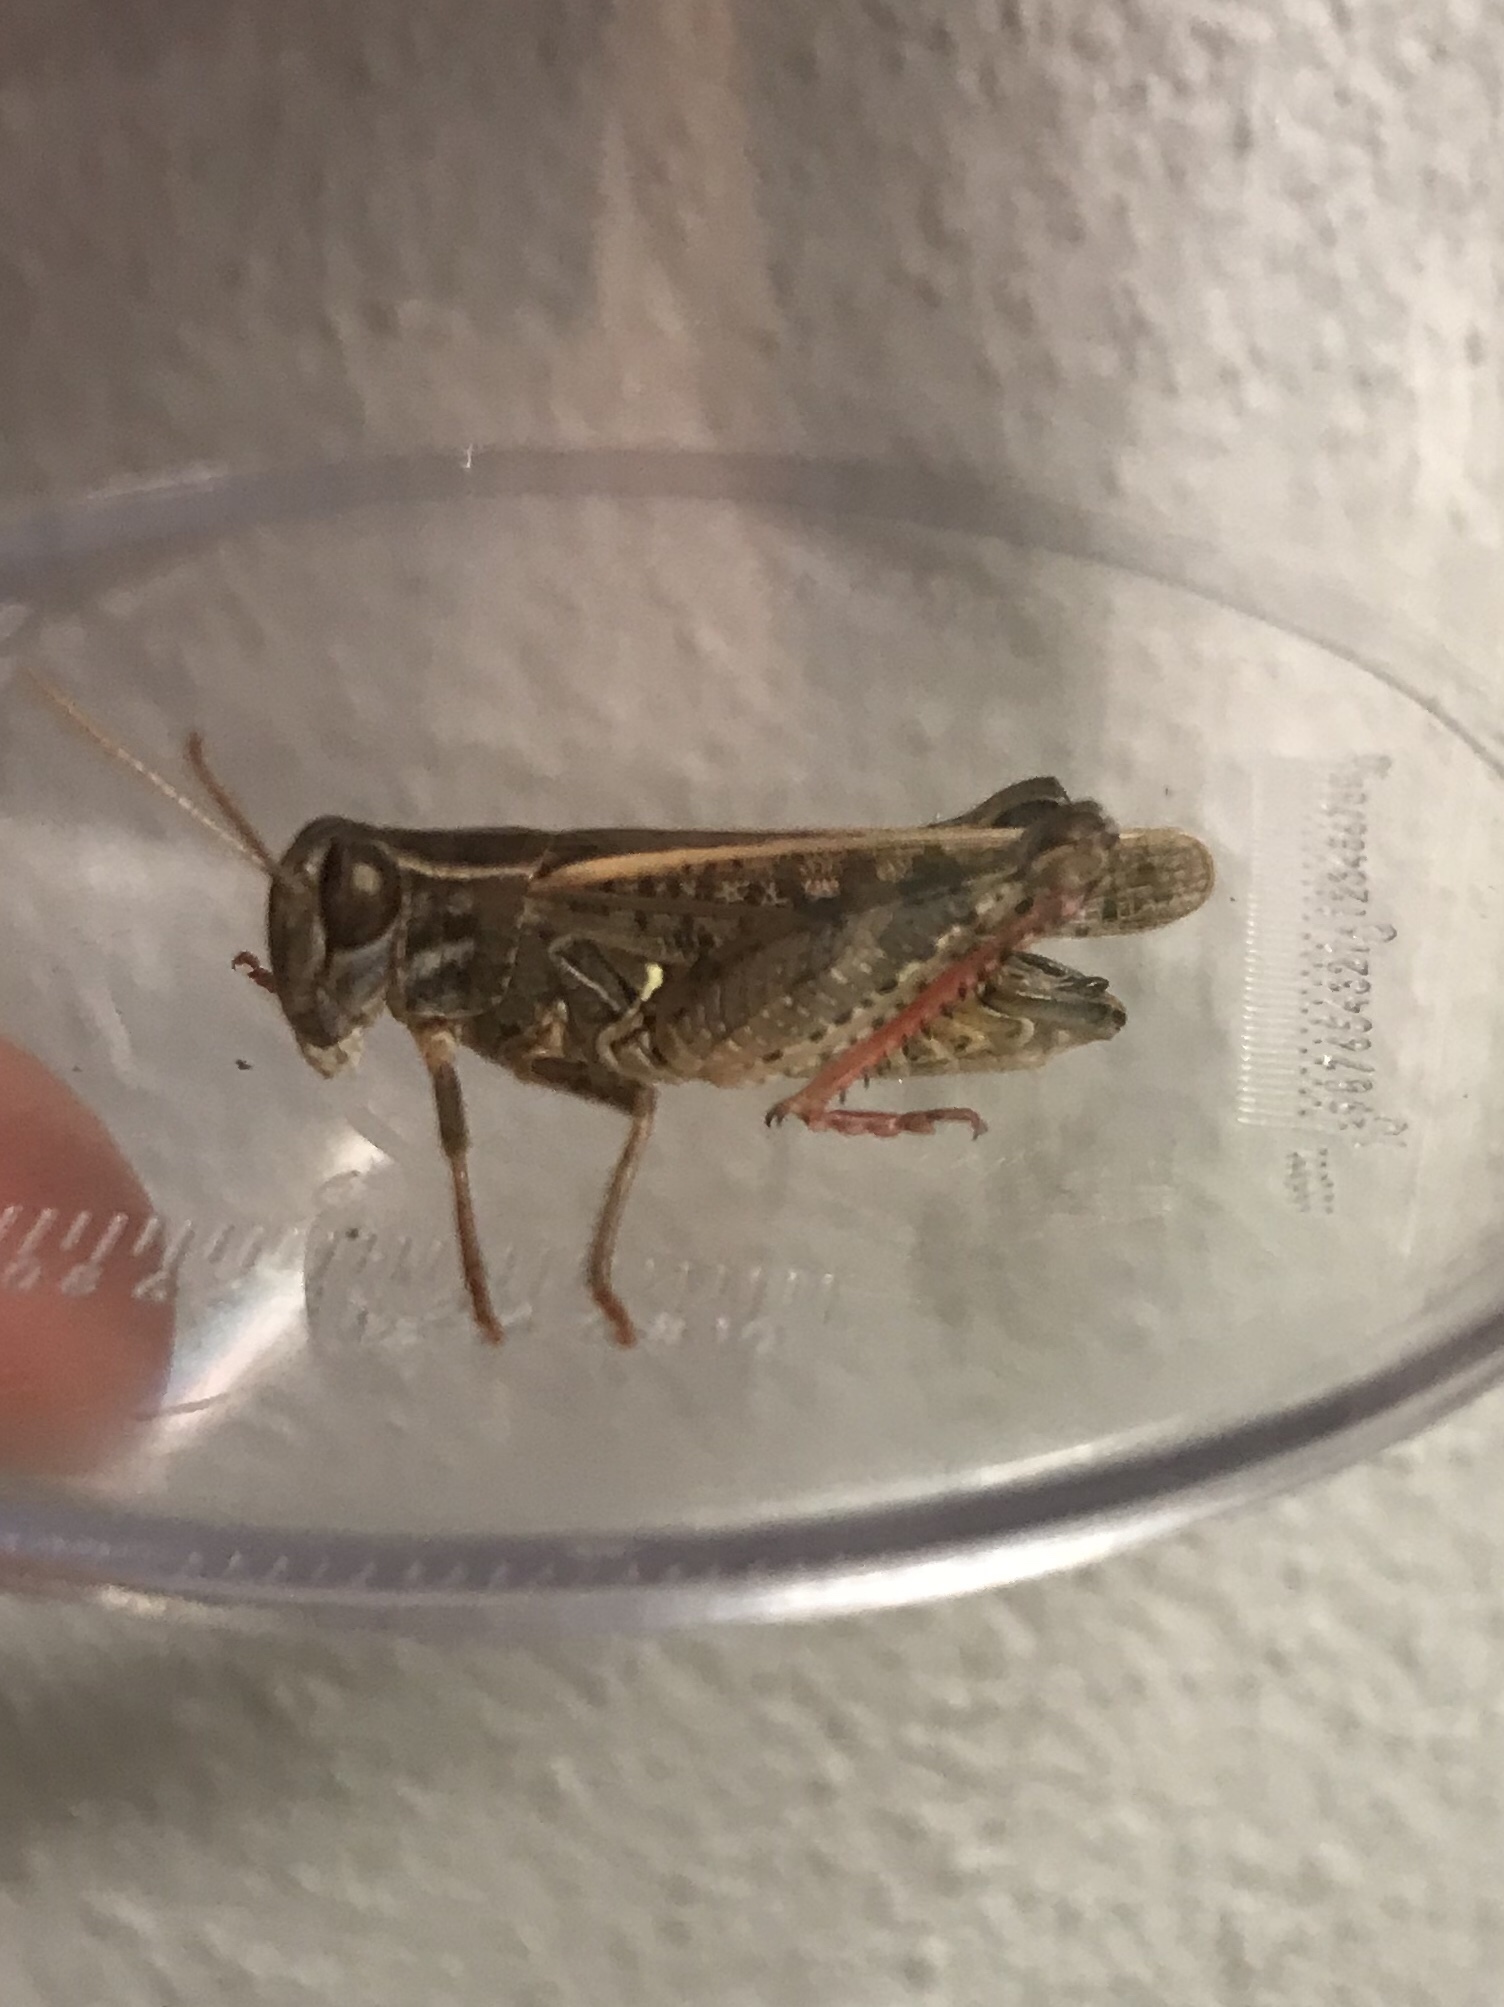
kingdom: Animalia
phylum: Arthropoda
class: Insecta
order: Orthoptera
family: Acrididae
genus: Calliptamus
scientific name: Calliptamus italicus
